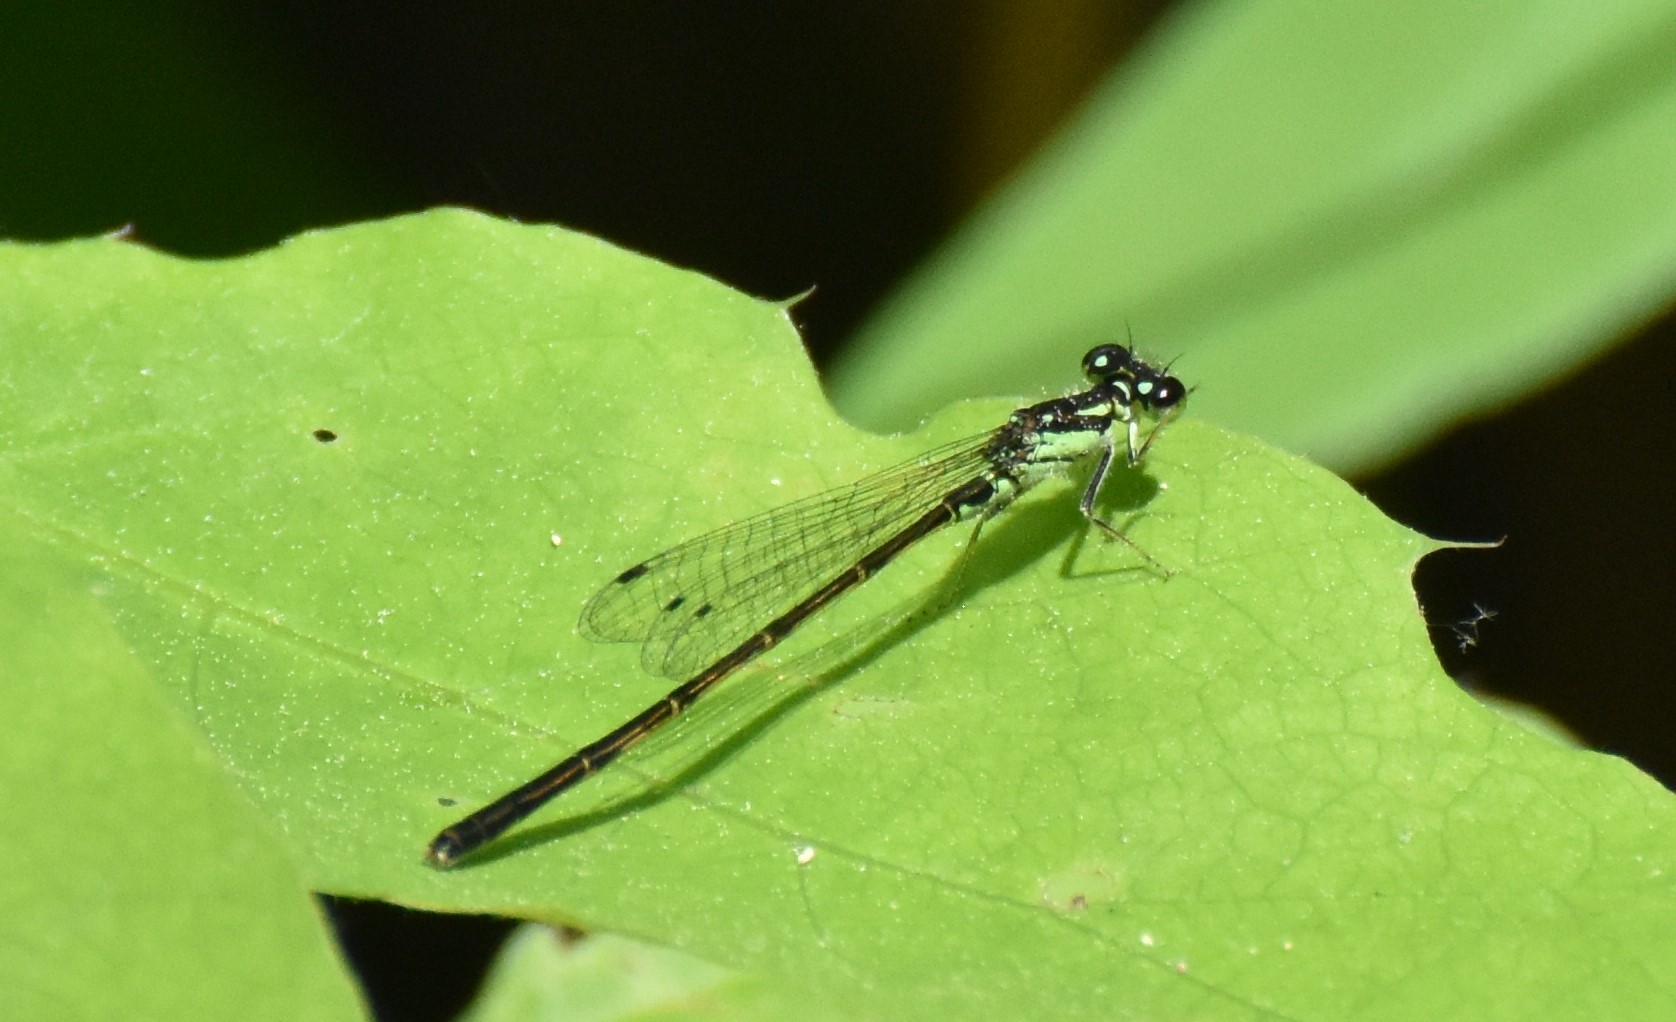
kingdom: Animalia
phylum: Arthropoda
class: Insecta
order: Odonata
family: Coenagrionidae
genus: Ischnura
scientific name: Ischnura posita
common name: Fragile forktail
